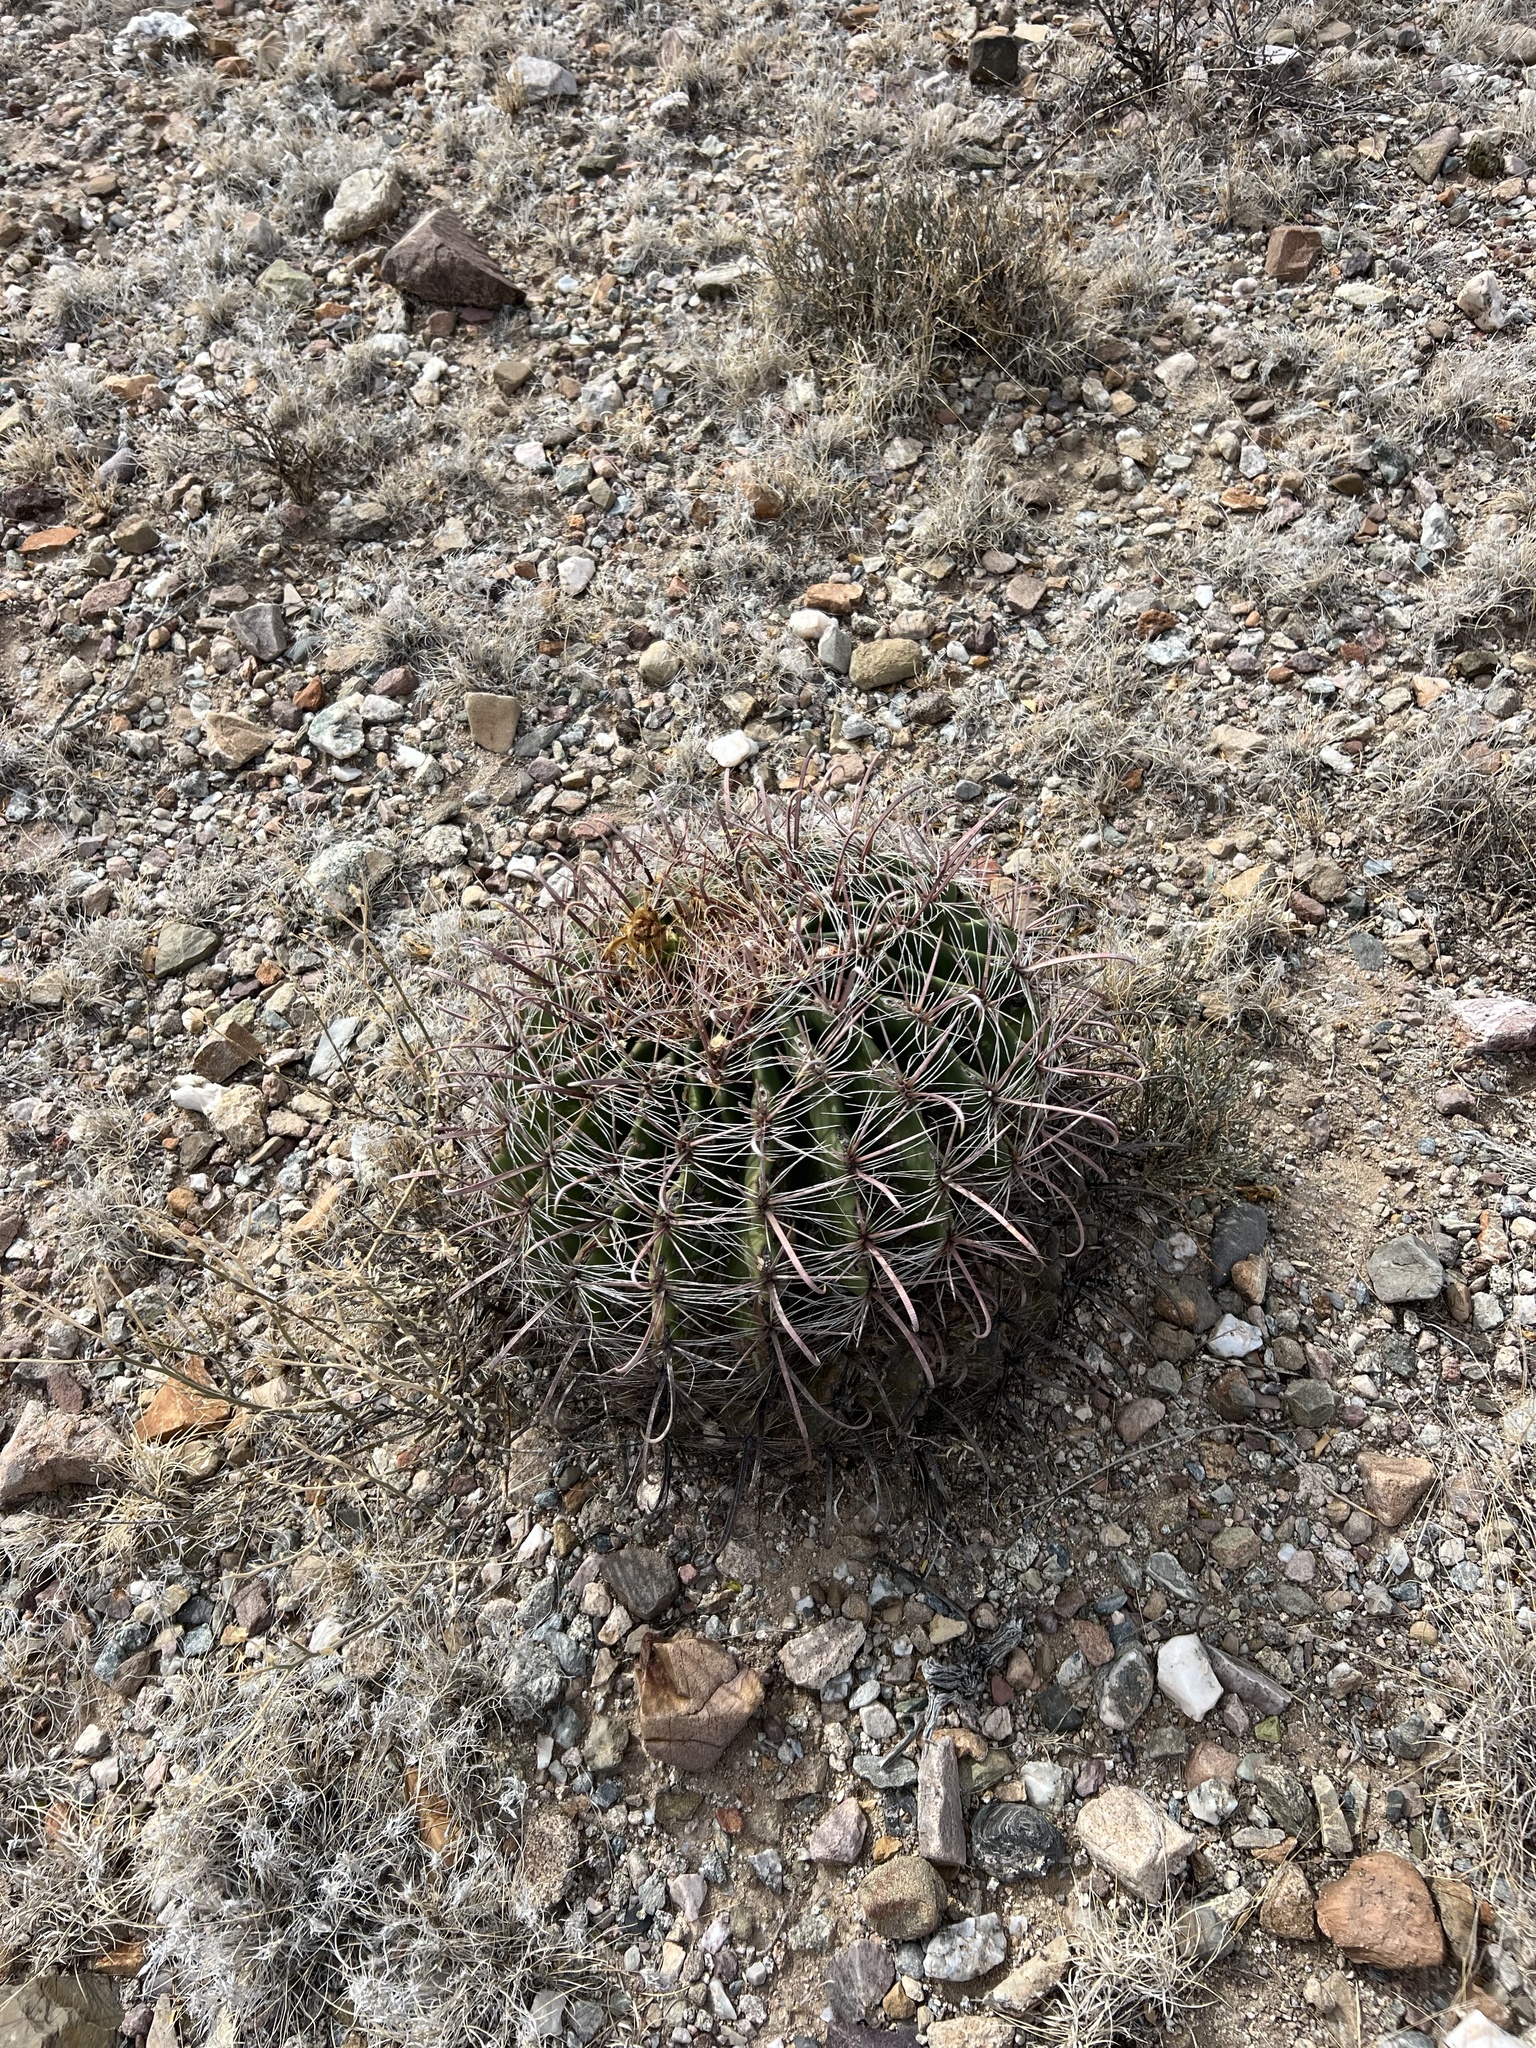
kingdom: Plantae
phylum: Tracheophyta
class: Magnoliopsida
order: Caryophyllales
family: Cactaceae
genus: Ferocactus
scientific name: Ferocactus wislizeni
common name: Candy barrel cactus
